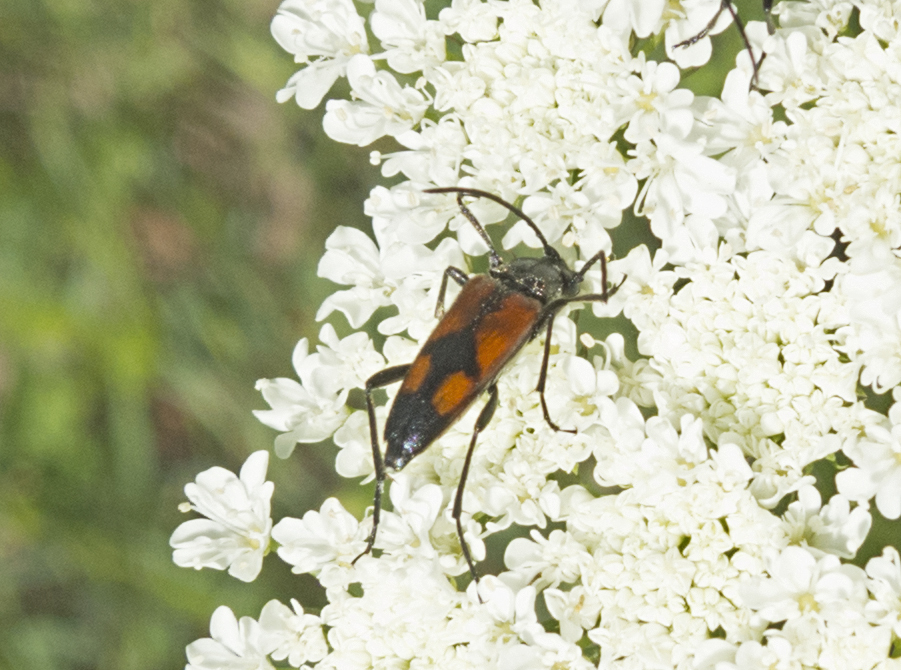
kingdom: Animalia
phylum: Arthropoda
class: Insecta
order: Coleoptera
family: Cerambycidae
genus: Stenurella
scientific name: Stenurella bifasciata
